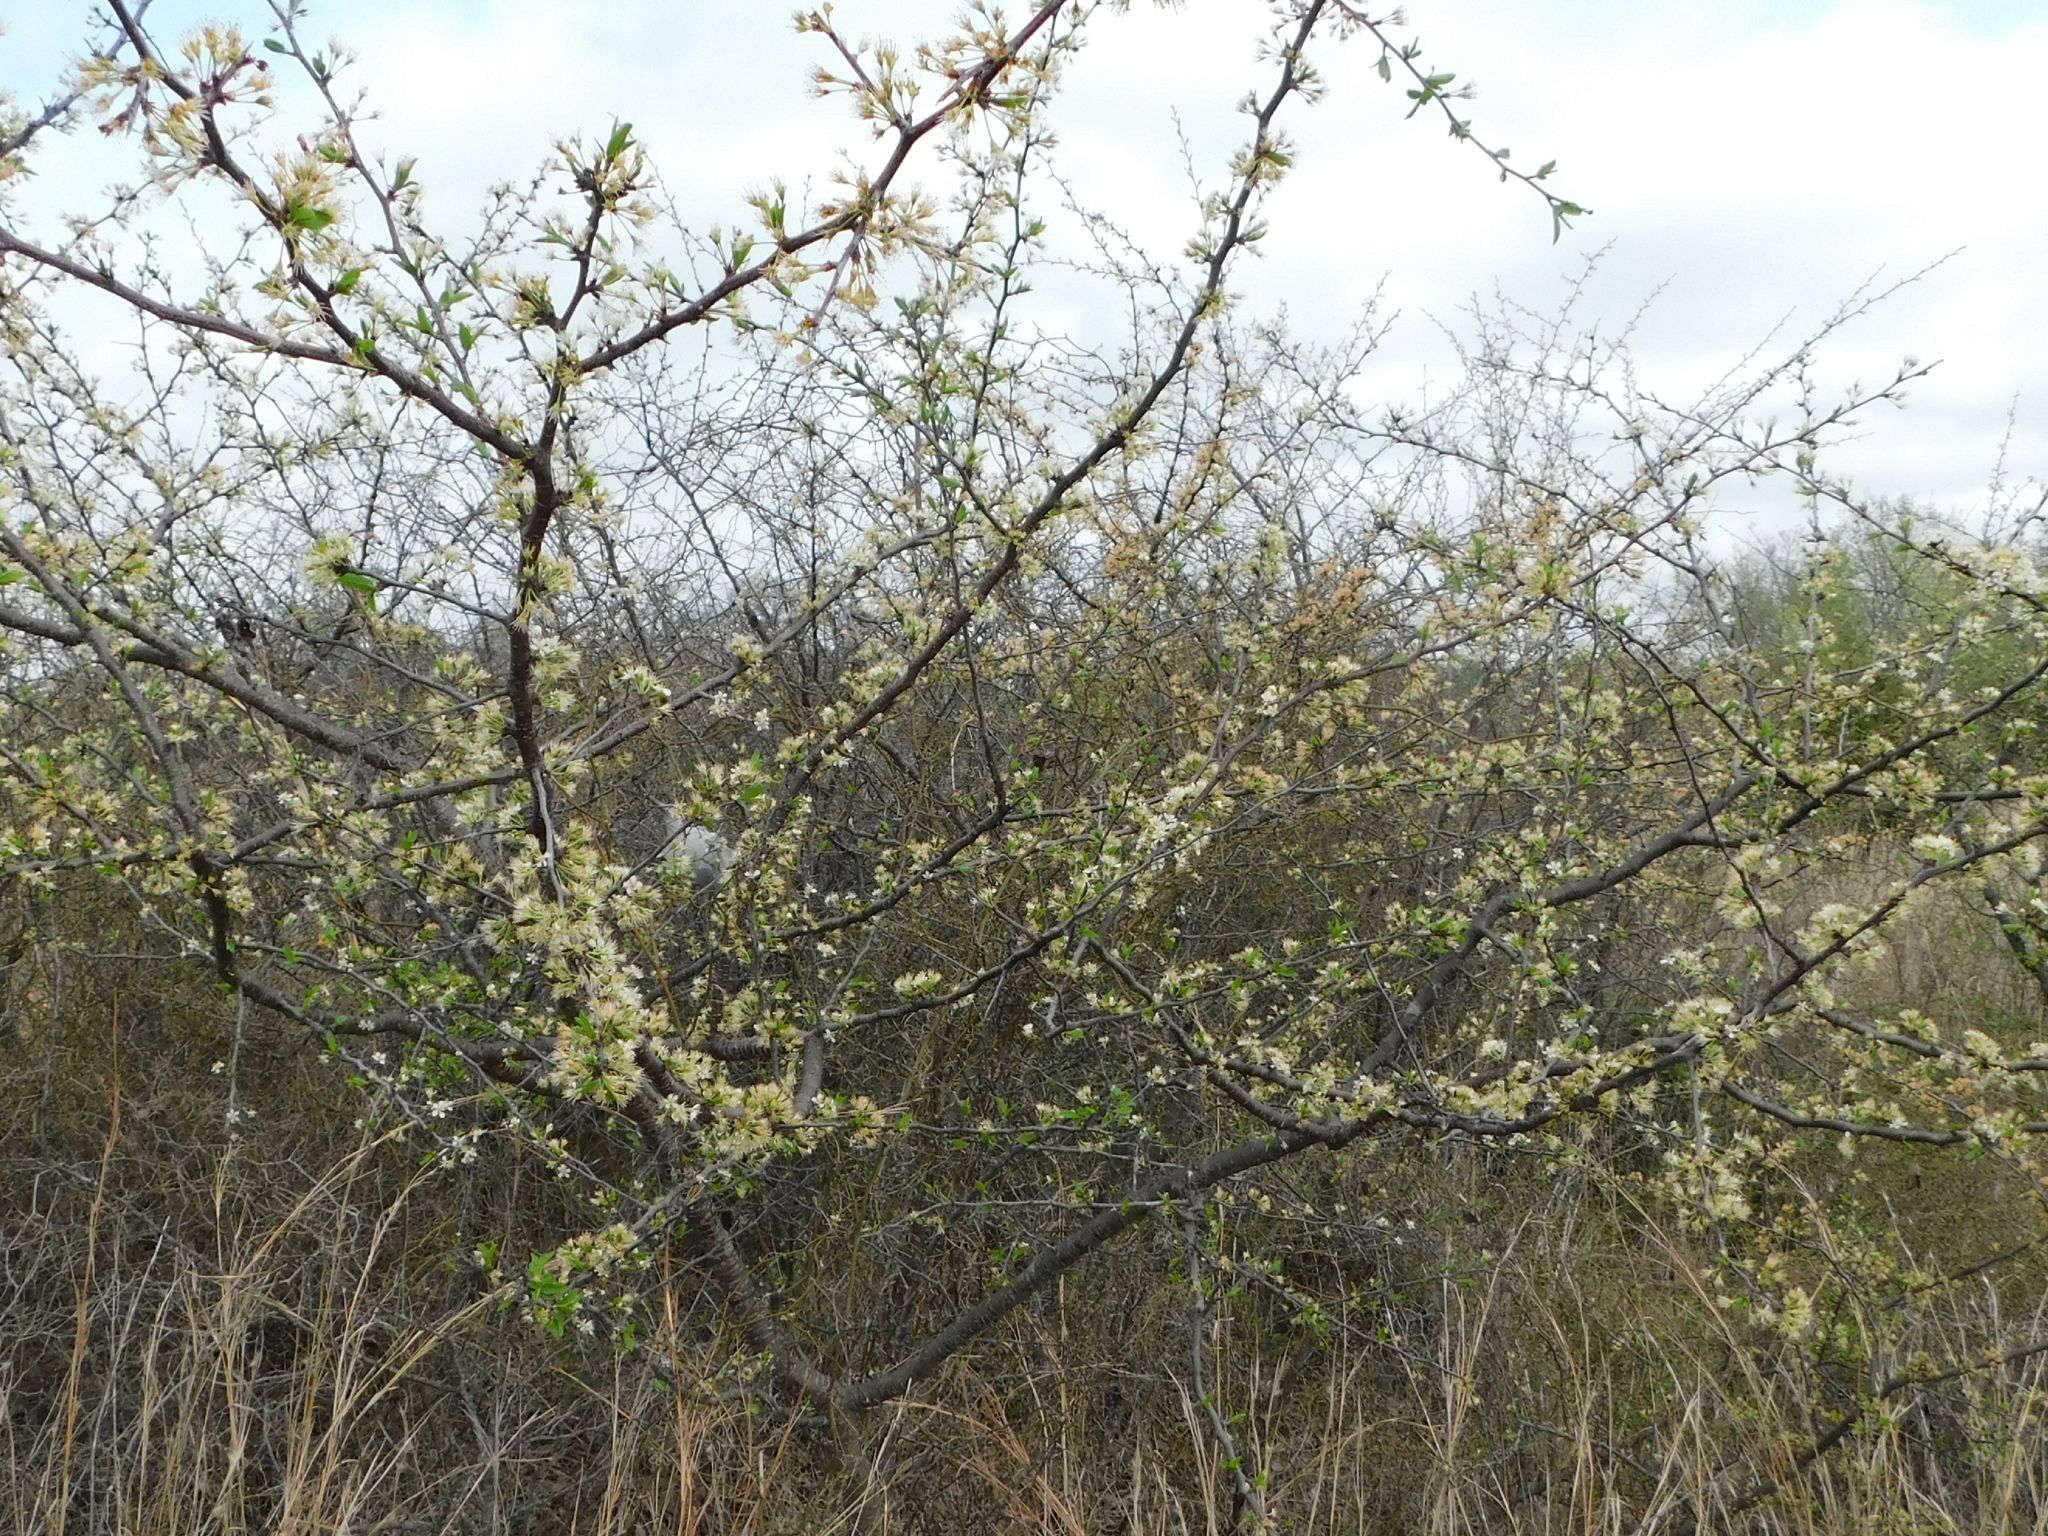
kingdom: Plantae
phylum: Tracheophyta
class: Magnoliopsida
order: Rosales
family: Rosaceae
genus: Prunus
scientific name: Prunus angustifolia
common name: Cherokee plum
